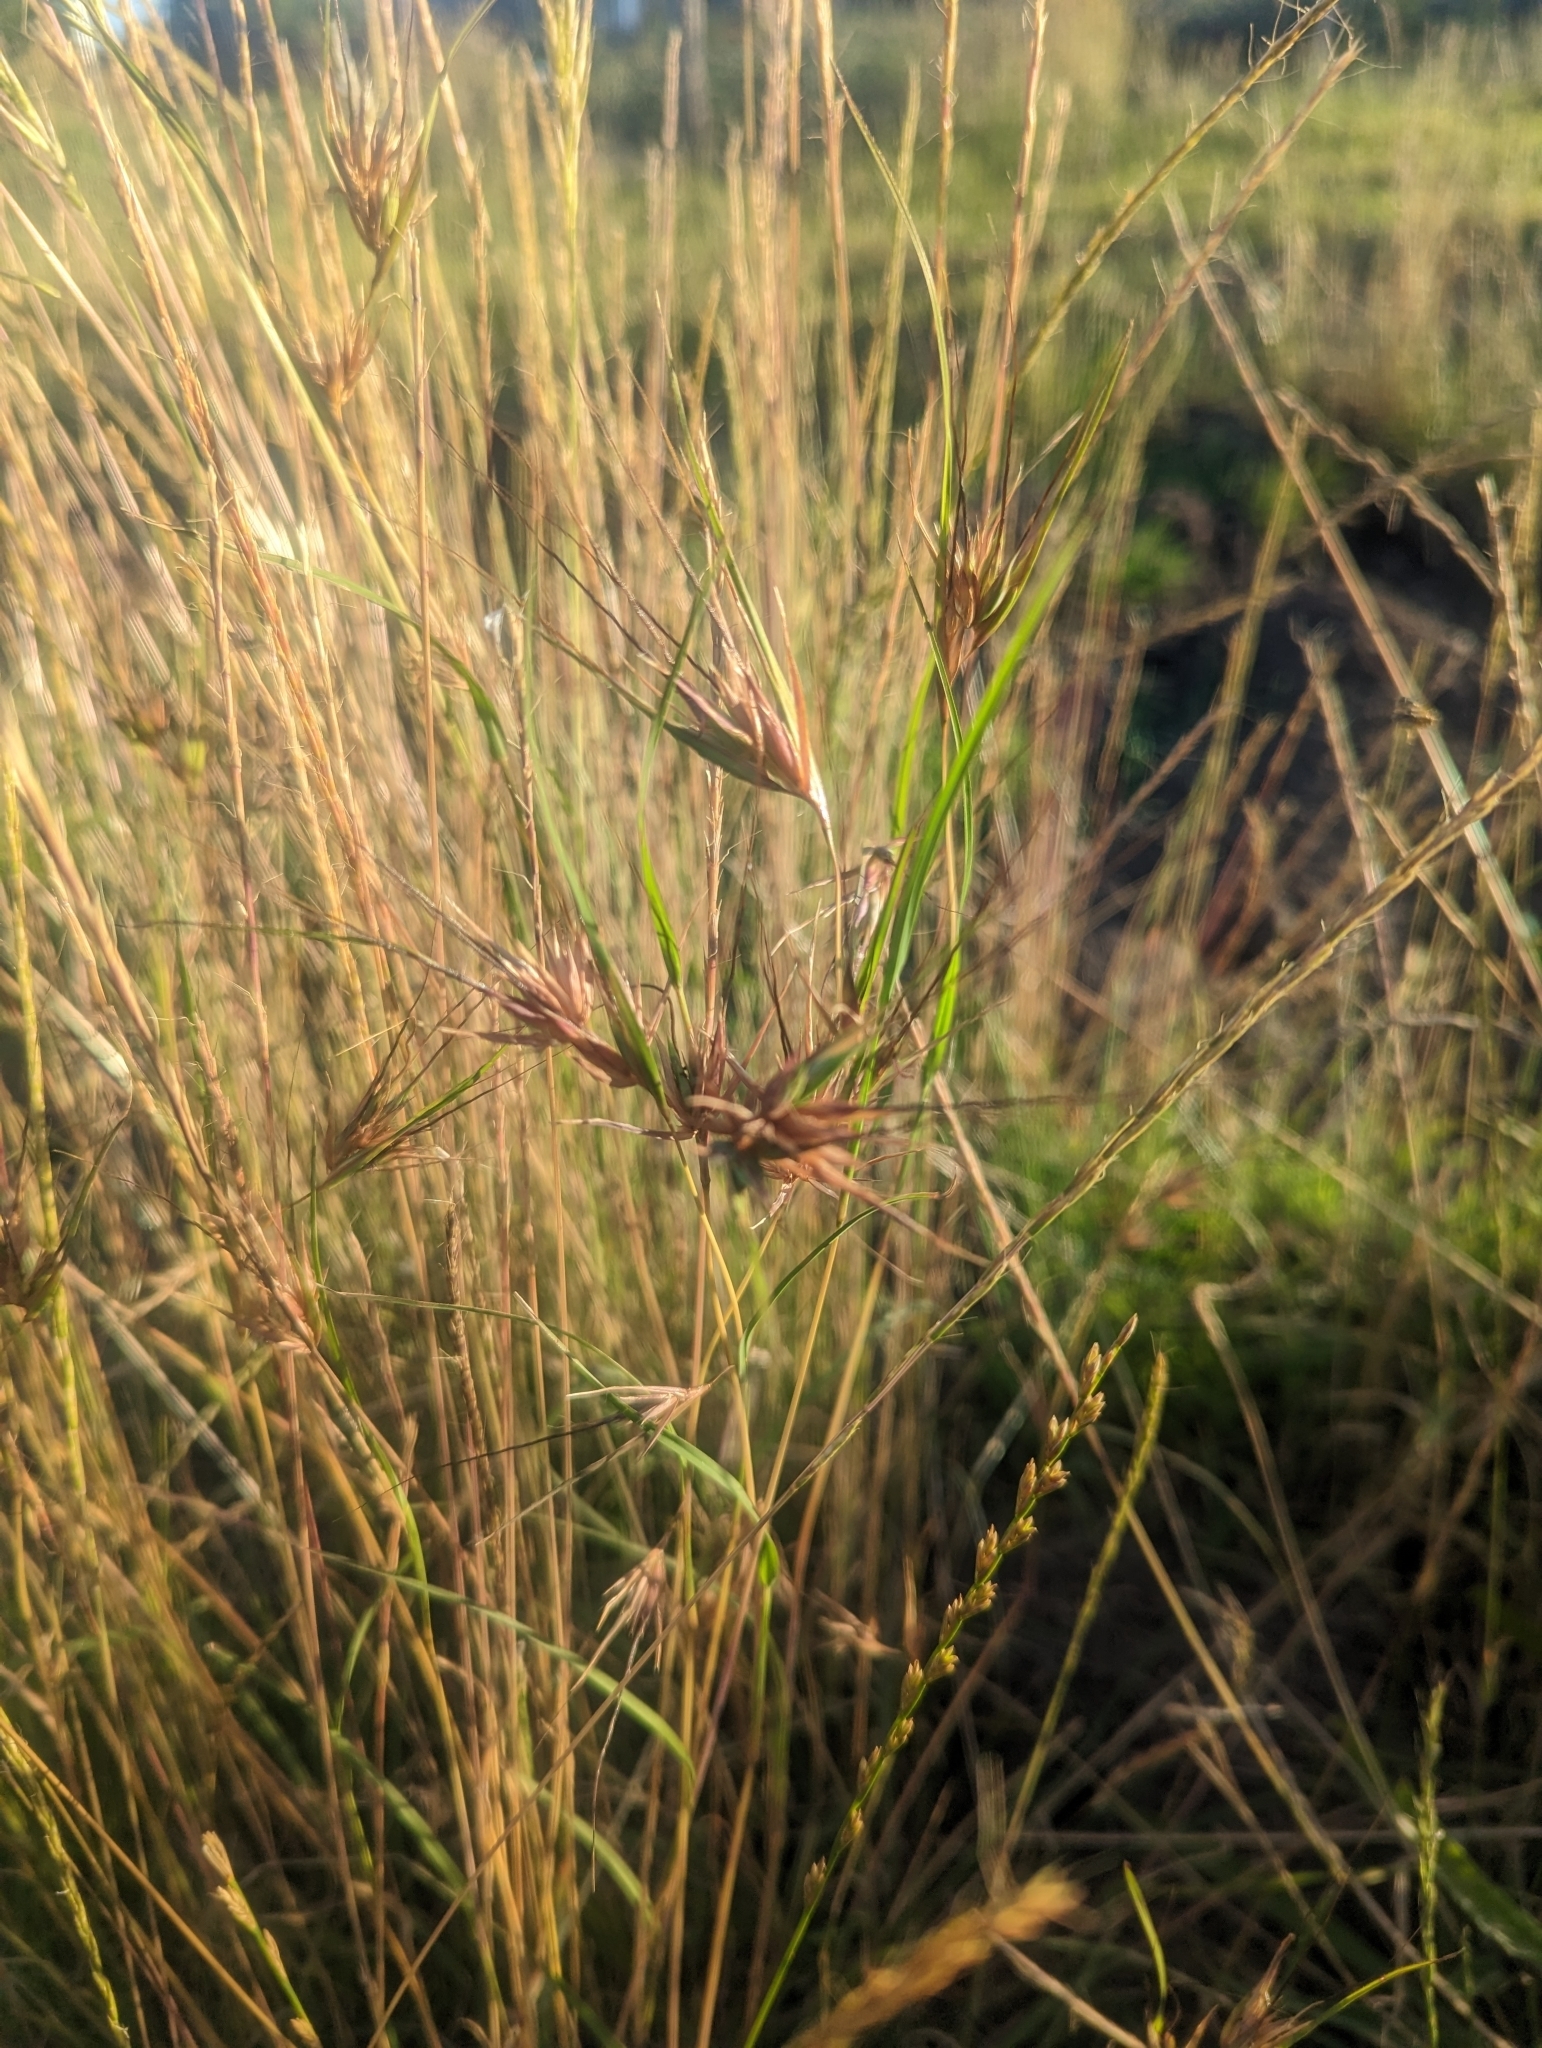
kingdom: Plantae
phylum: Tracheophyta
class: Liliopsida
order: Poales
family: Poaceae
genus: Themeda
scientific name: Themeda triandra
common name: Kangaroo grass
